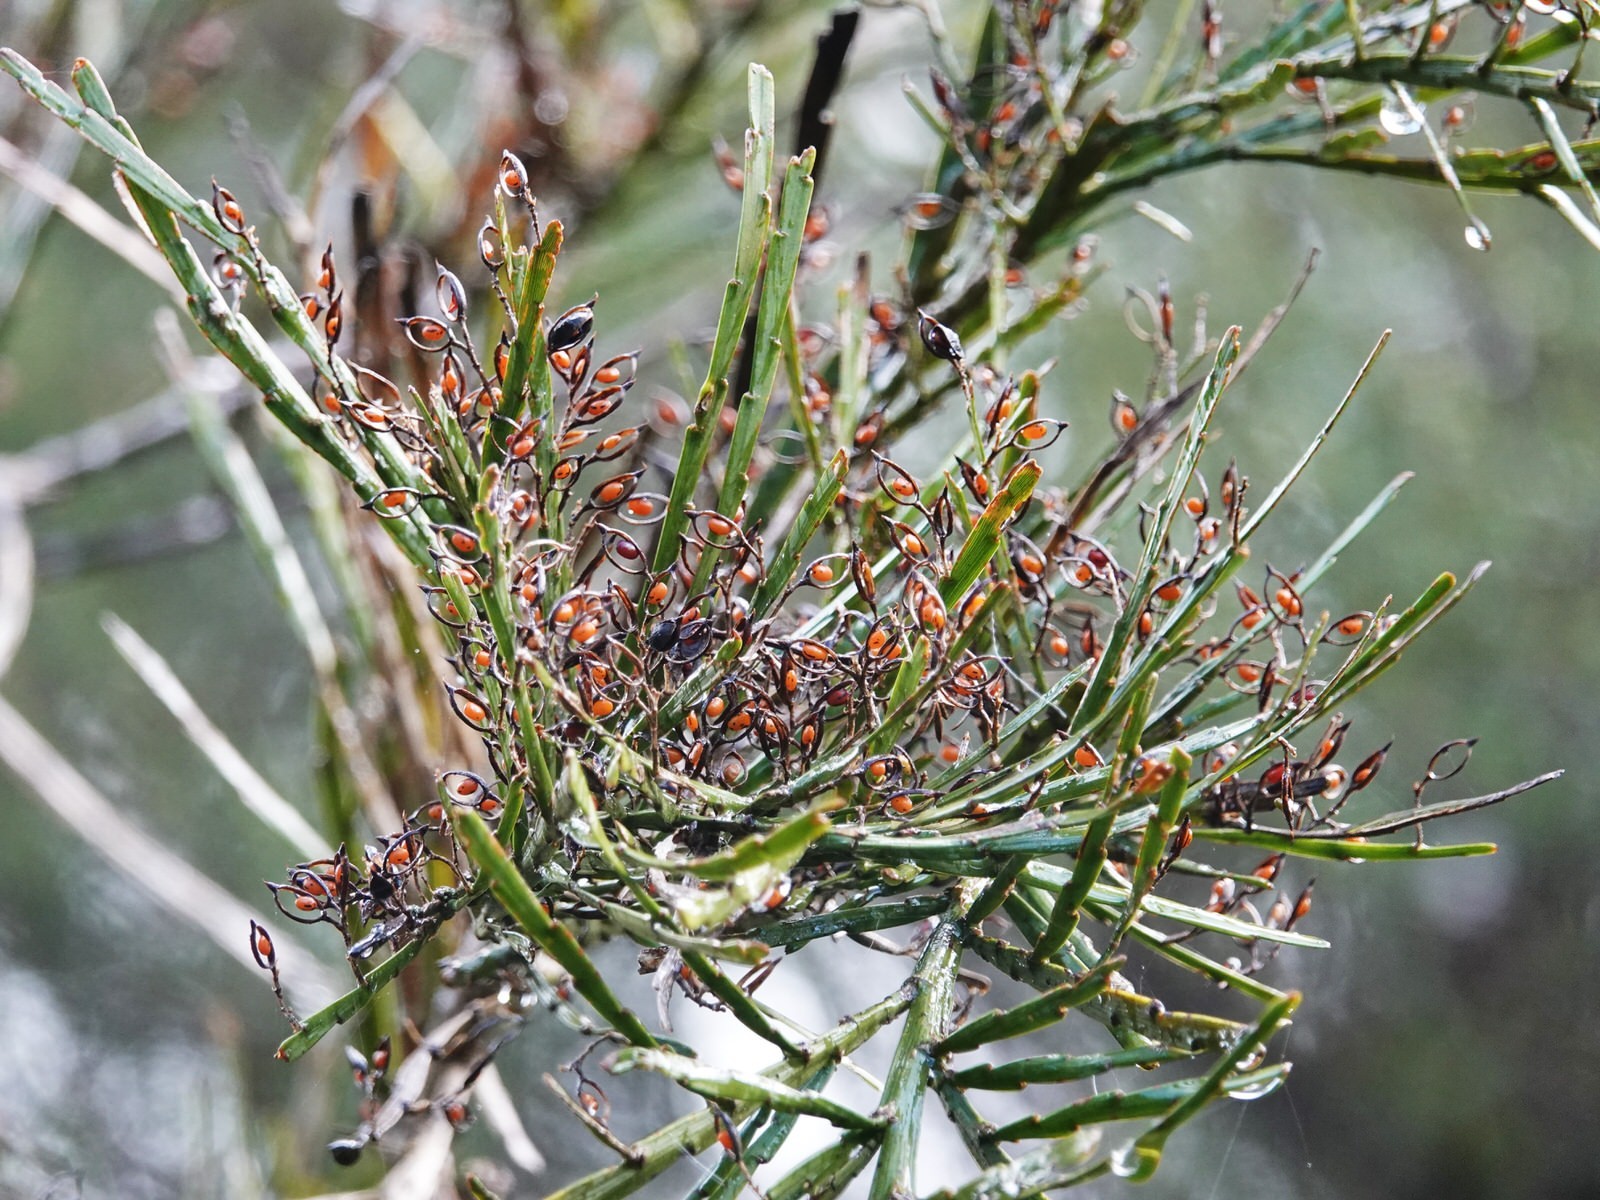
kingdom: Plantae
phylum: Tracheophyta
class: Magnoliopsida
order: Fabales
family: Fabaceae
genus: Carmichaelia
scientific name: Carmichaelia australis
